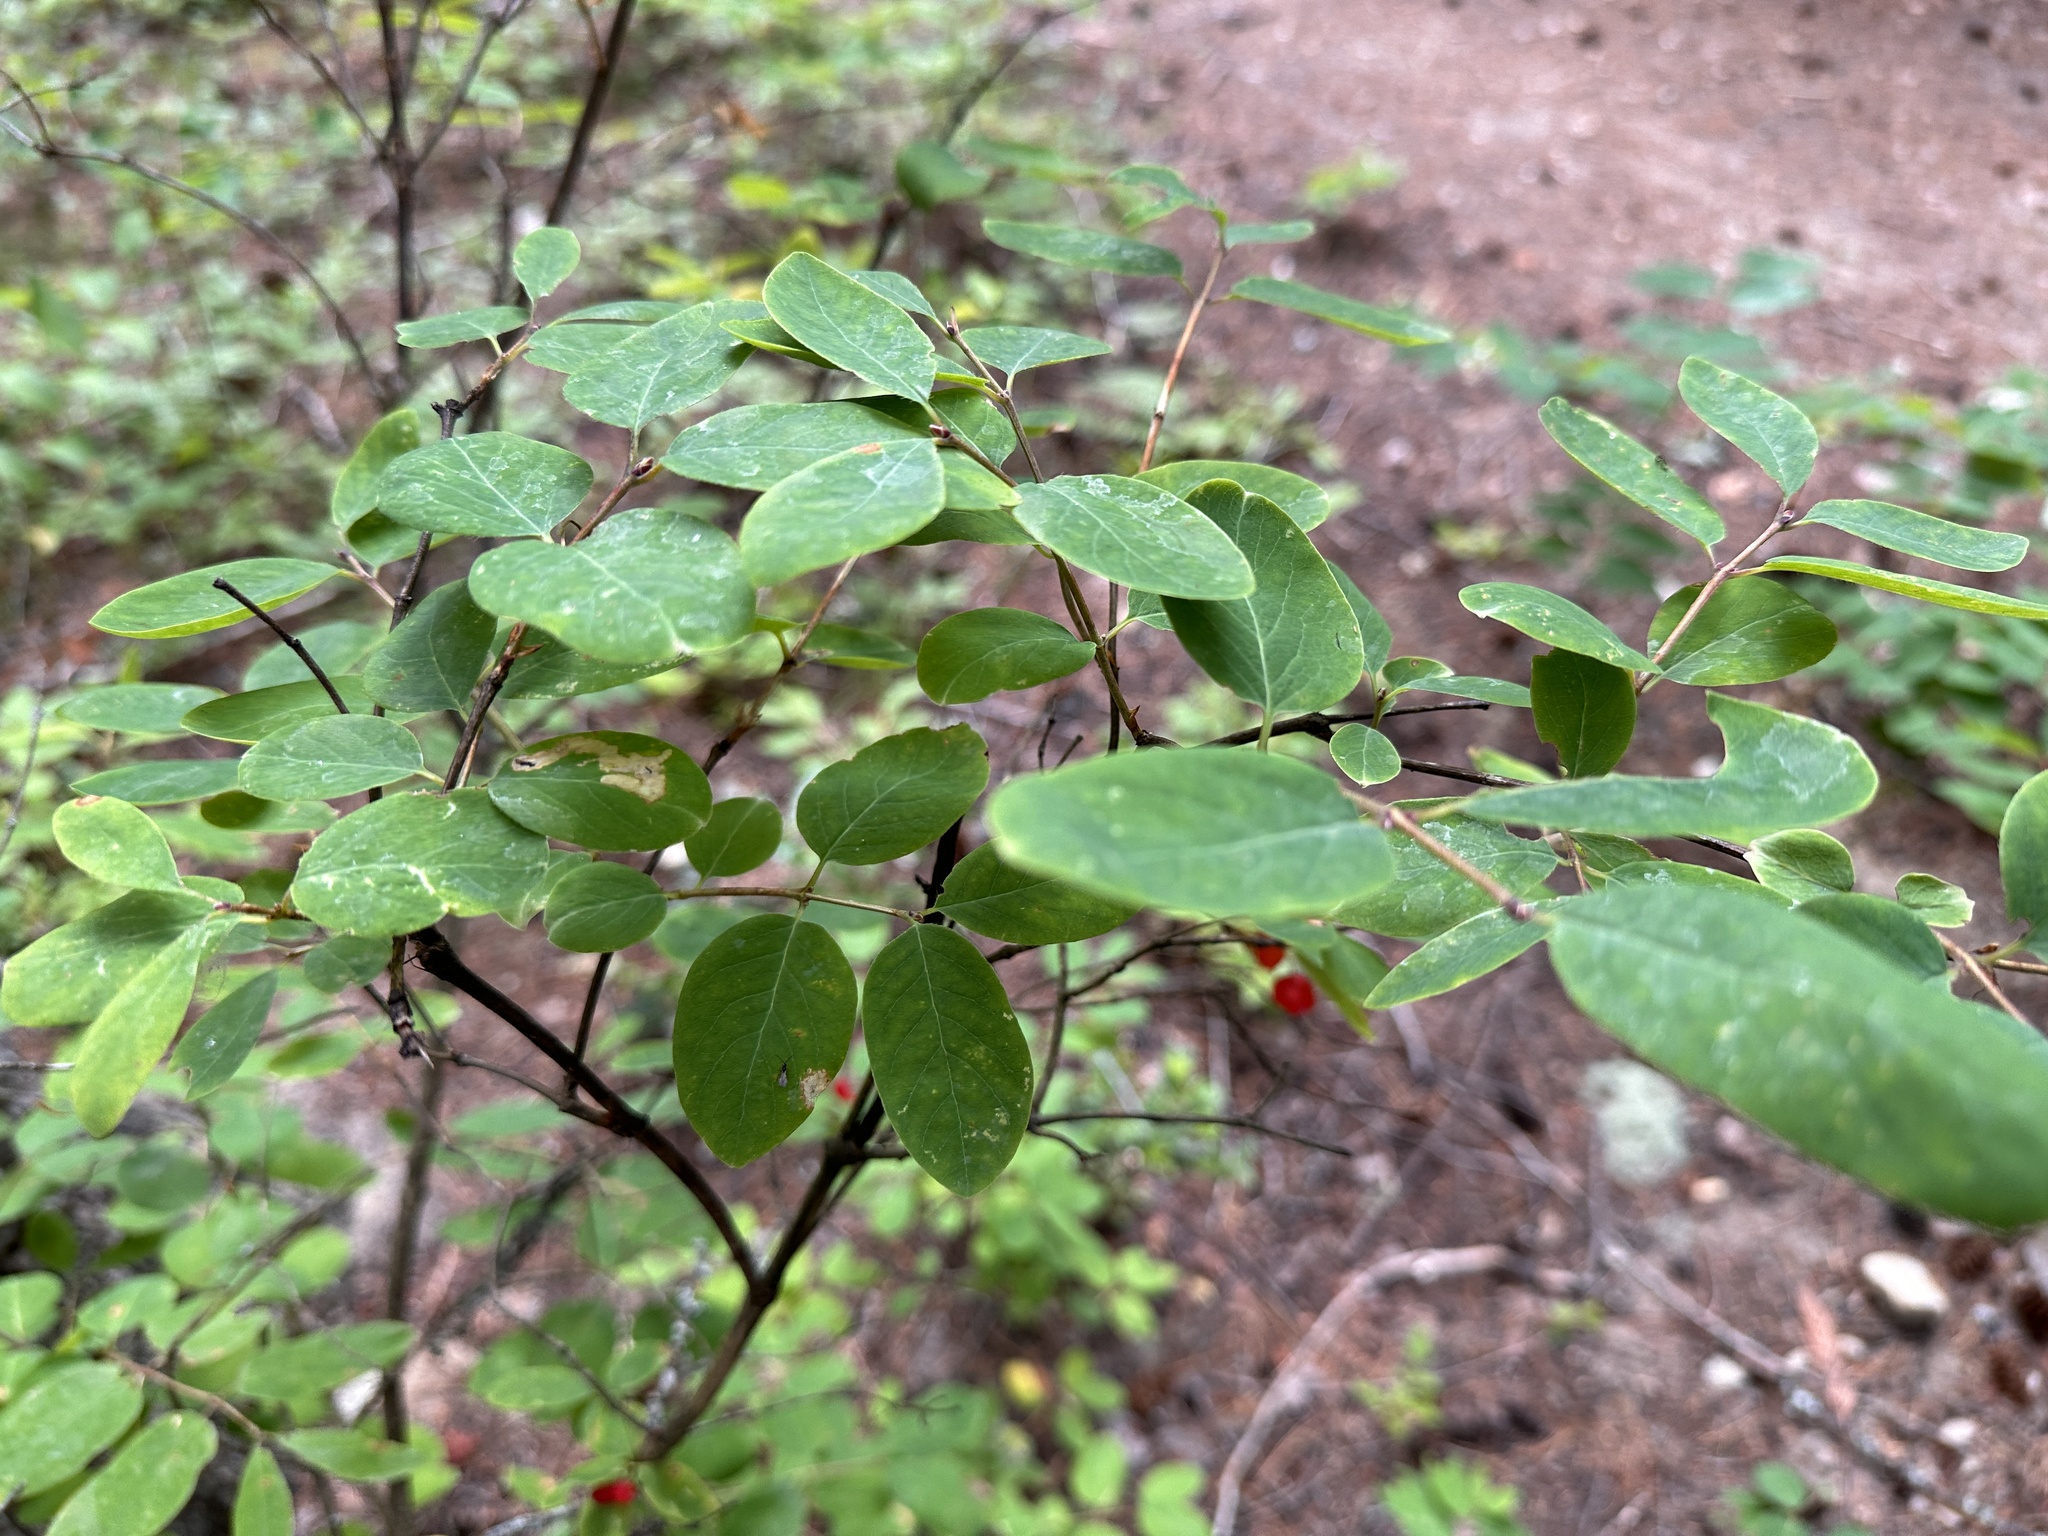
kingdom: Plantae
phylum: Tracheophyta
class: Magnoliopsida
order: Dipsacales
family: Caprifoliaceae
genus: Lonicera
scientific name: Lonicera utahensis
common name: Utah honeysuckle
